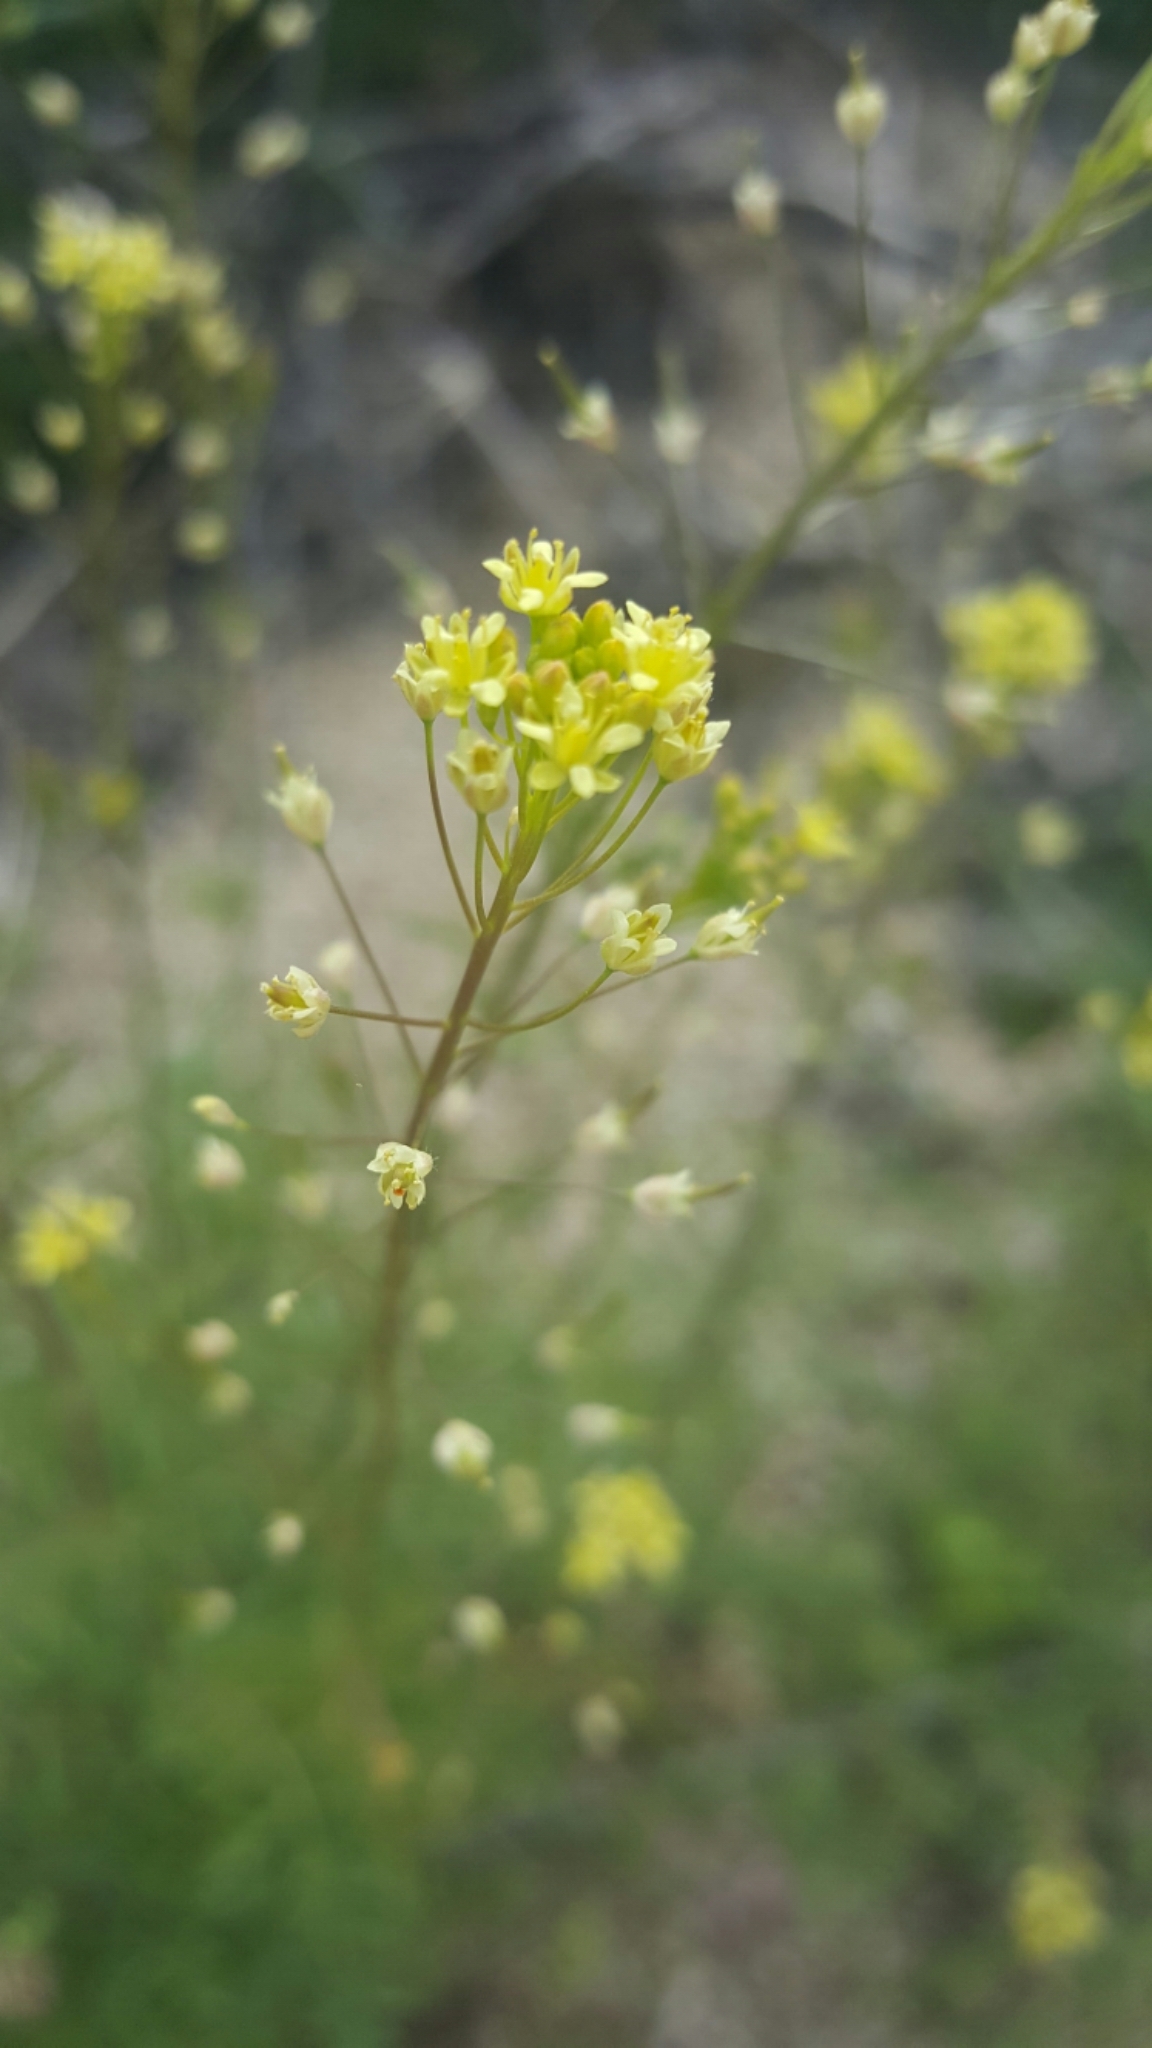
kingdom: Plantae
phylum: Tracheophyta
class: Magnoliopsida
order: Brassicales
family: Brassicaceae
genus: Descurainia
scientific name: Descurainia pinnata
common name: Western tansy mustard
